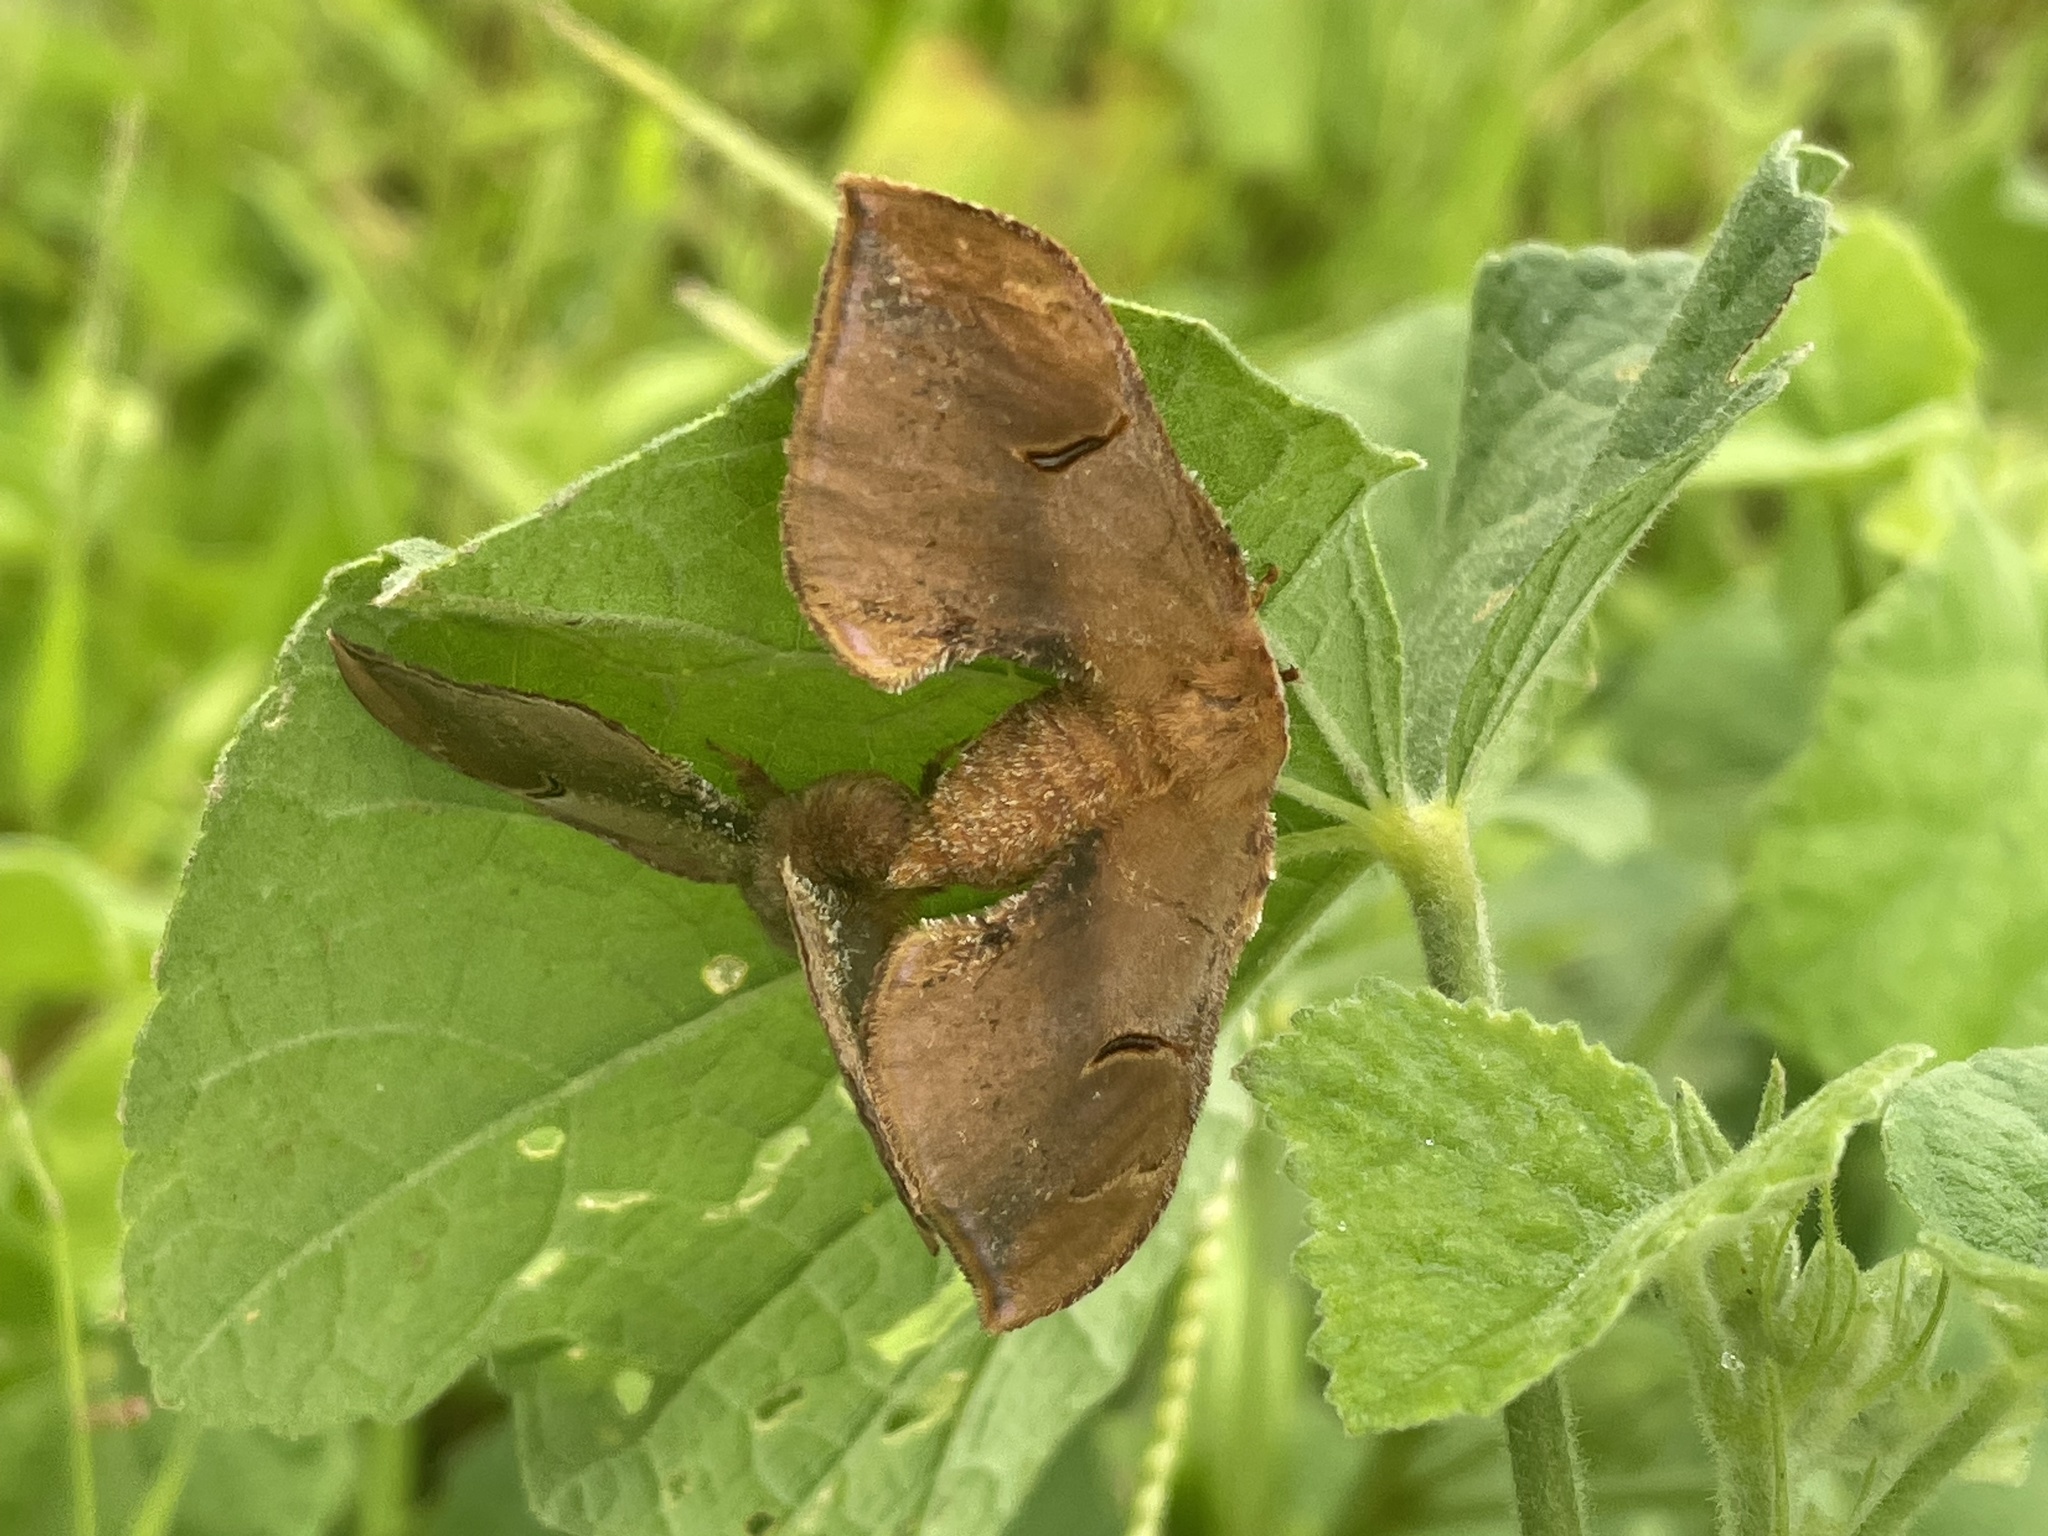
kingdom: Animalia
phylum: Arthropoda
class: Insecta
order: Lepidoptera
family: Saturniidae
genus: Goodia
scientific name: Goodia
